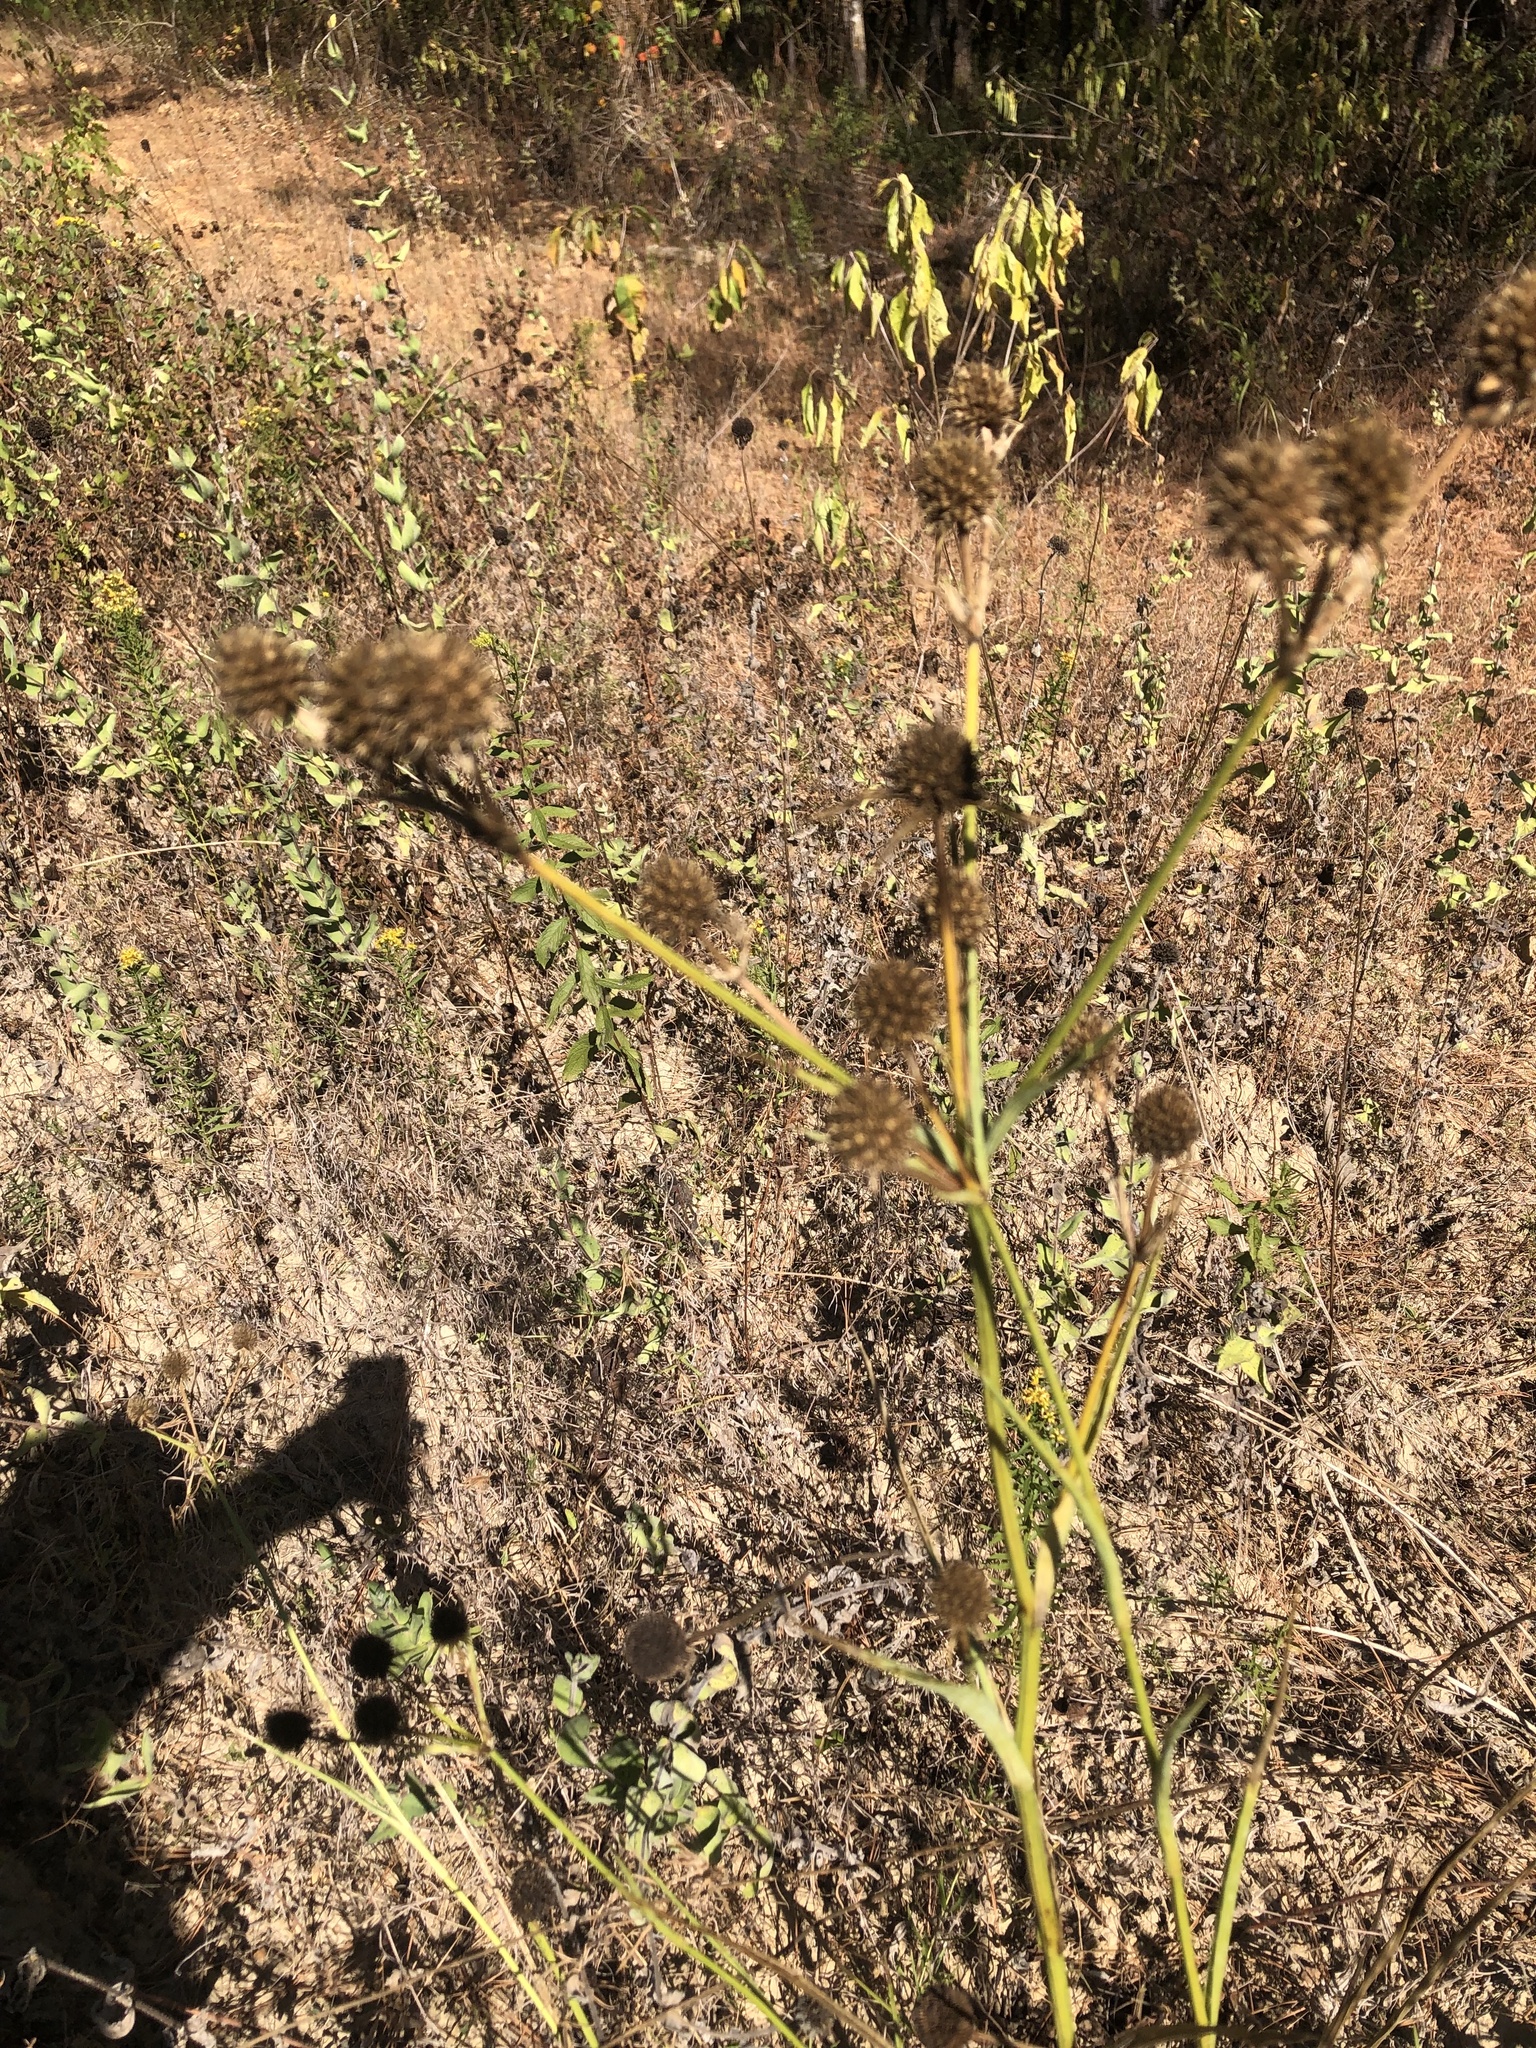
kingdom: Plantae
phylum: Tracheophyta
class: Magnoliopsida
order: Apiales
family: Apiaceae
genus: Eryngium
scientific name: Eryngium yuccifolium
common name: Button eryngo
